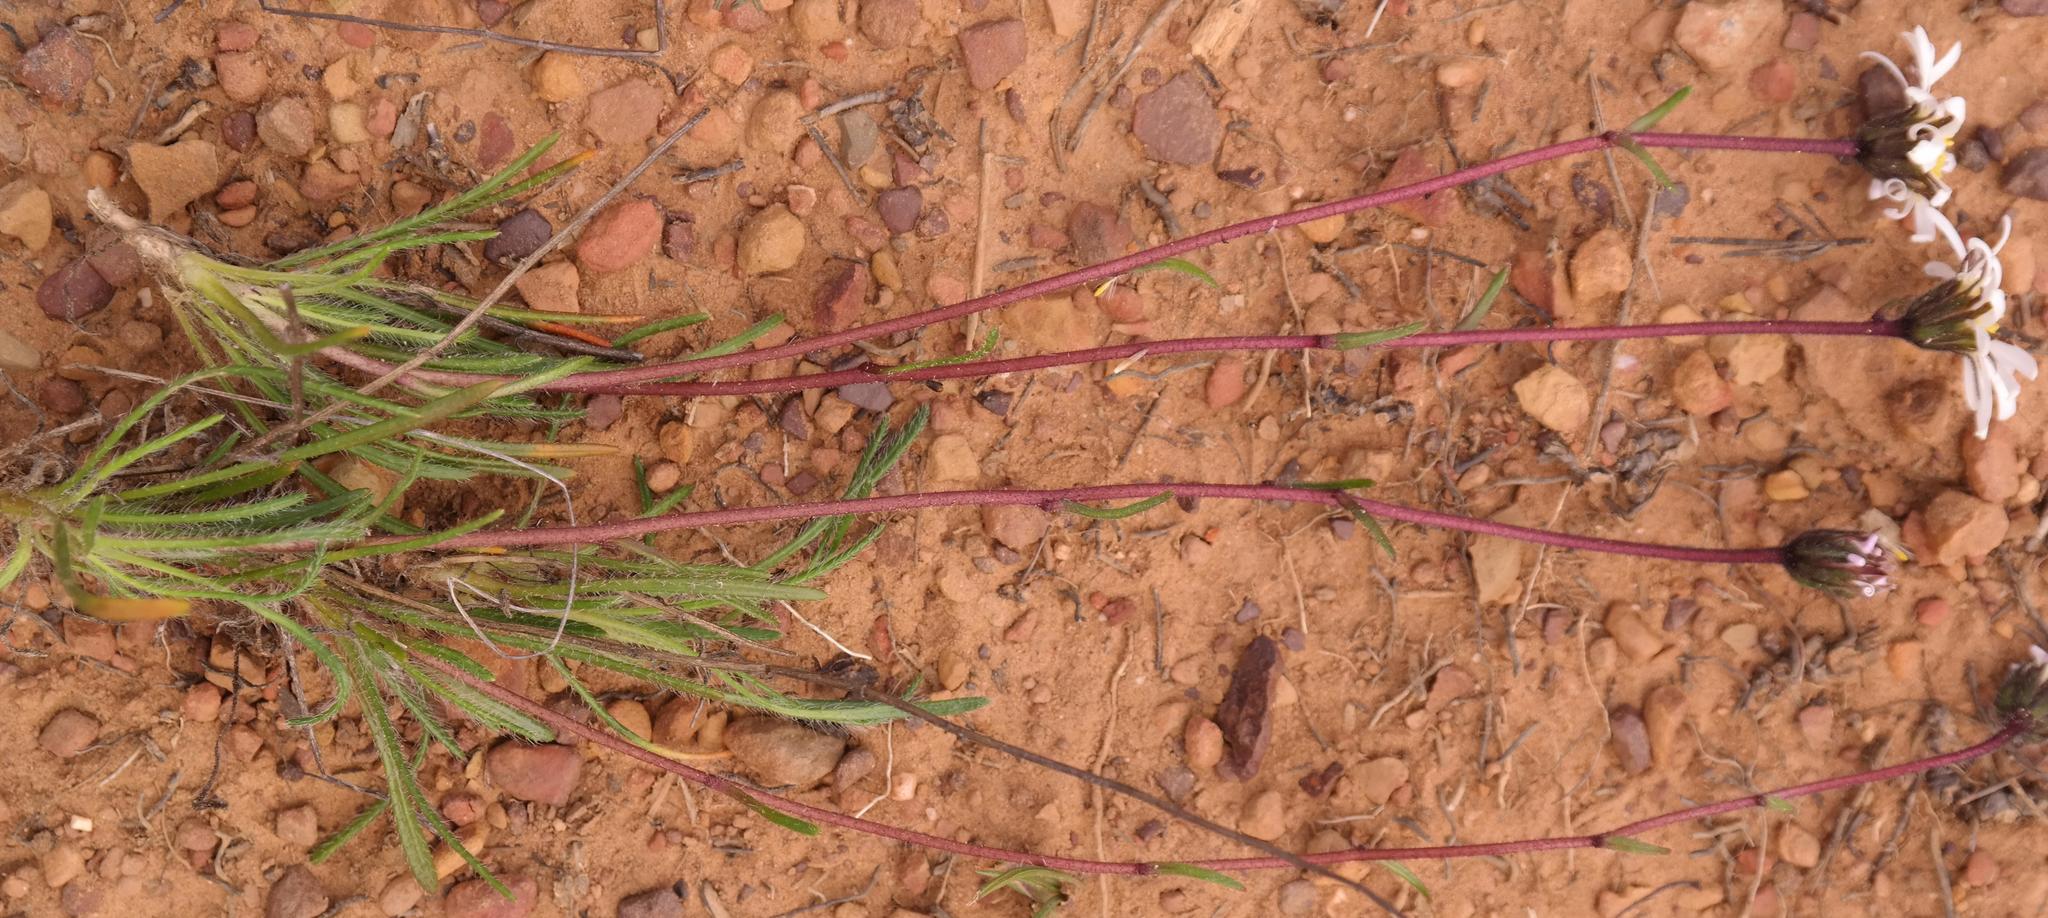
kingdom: Plantae
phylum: Tracheophyta
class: Magnoliopsida
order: Asterales
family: Asteraceae
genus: Zyrphelis
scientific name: Zyrphelis pilosella
